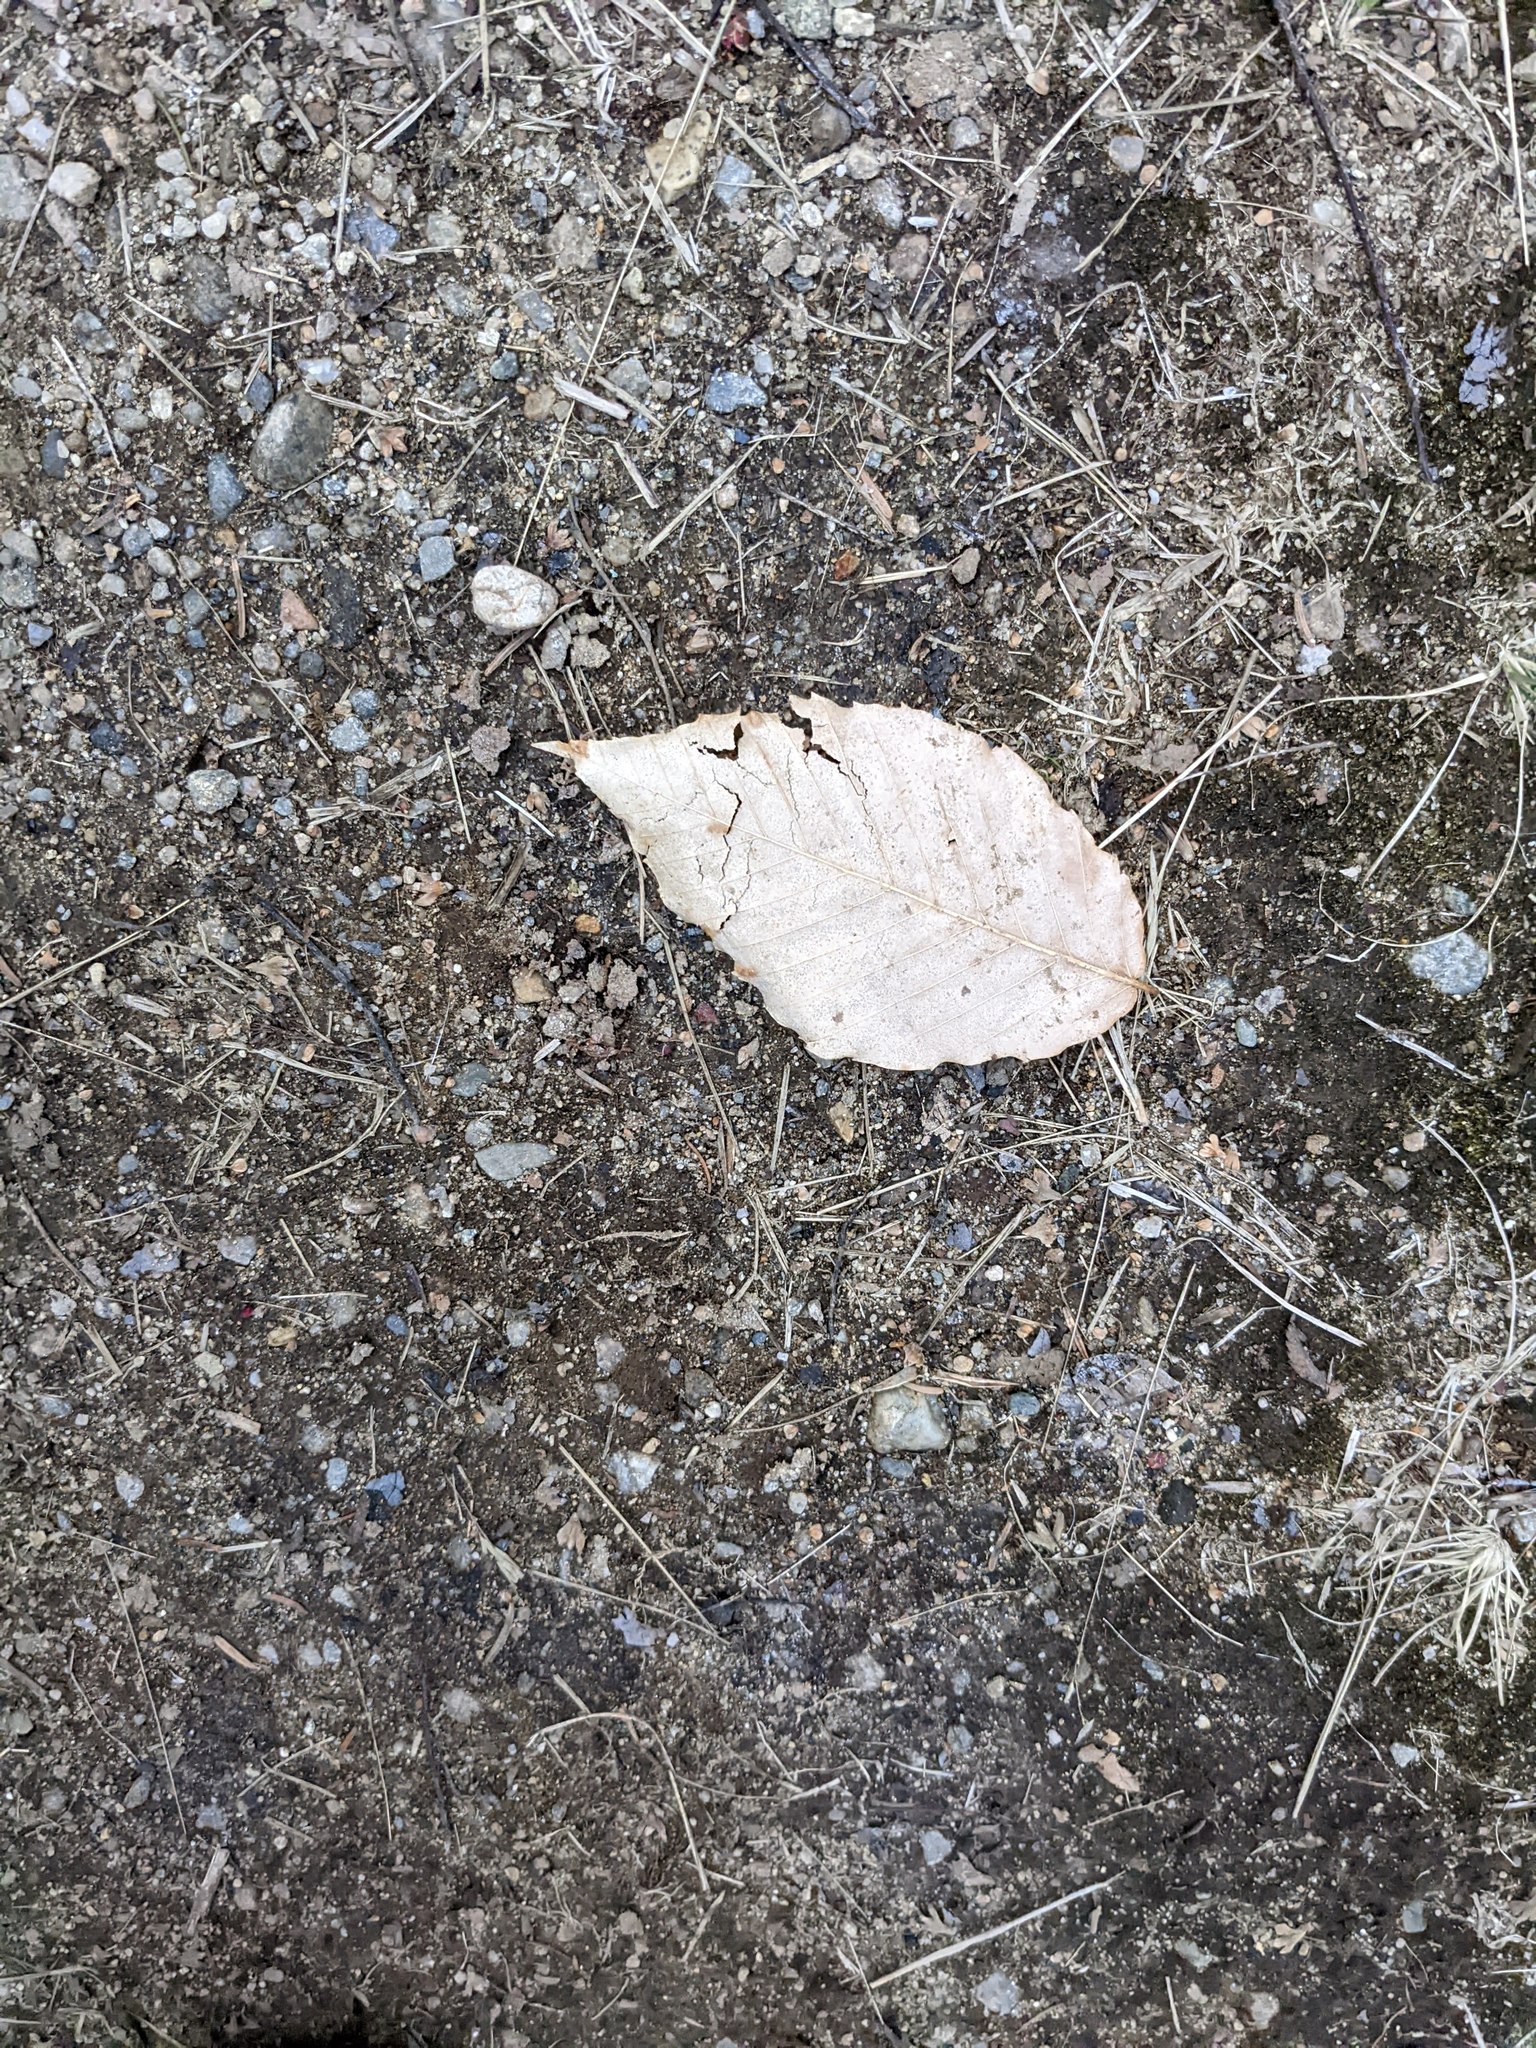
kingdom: Plantae
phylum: Tracheophyta
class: Magnoliopsida
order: Fagales
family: Fagaceae
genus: Fagus
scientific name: Fagus grandifolia
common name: American beech
